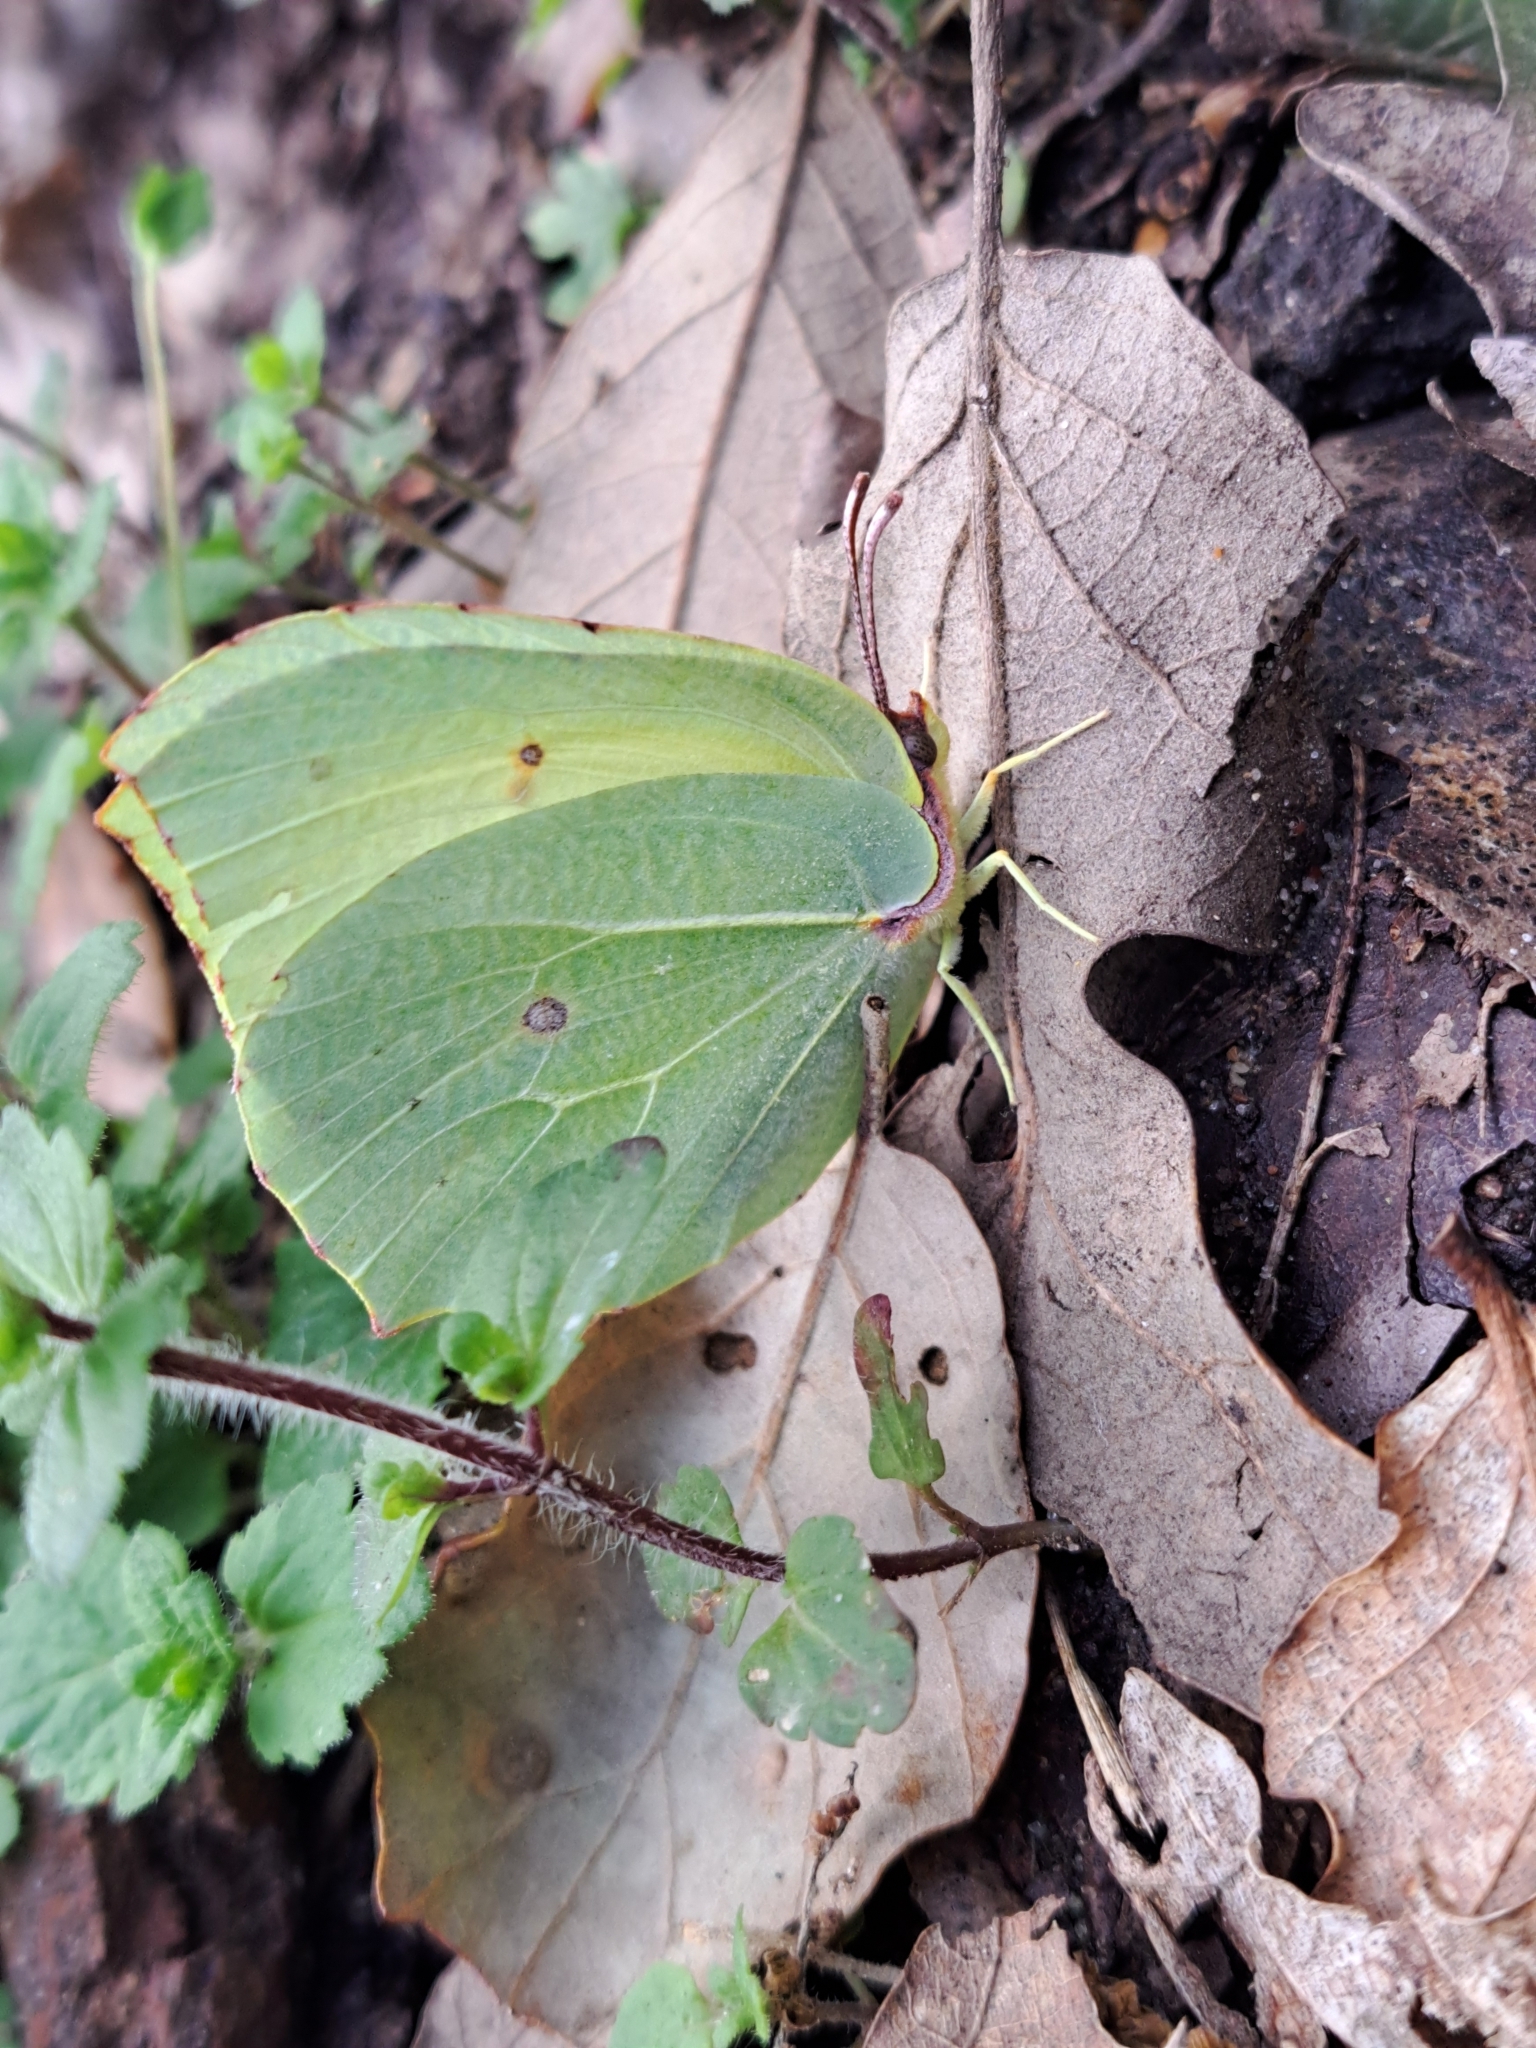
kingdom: Animalia
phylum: Arthropoda
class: Insecta
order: Lepidoptera
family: Pieridae
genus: Gonepteryx
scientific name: Gonepteryx cleopatra
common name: Cleopatra
